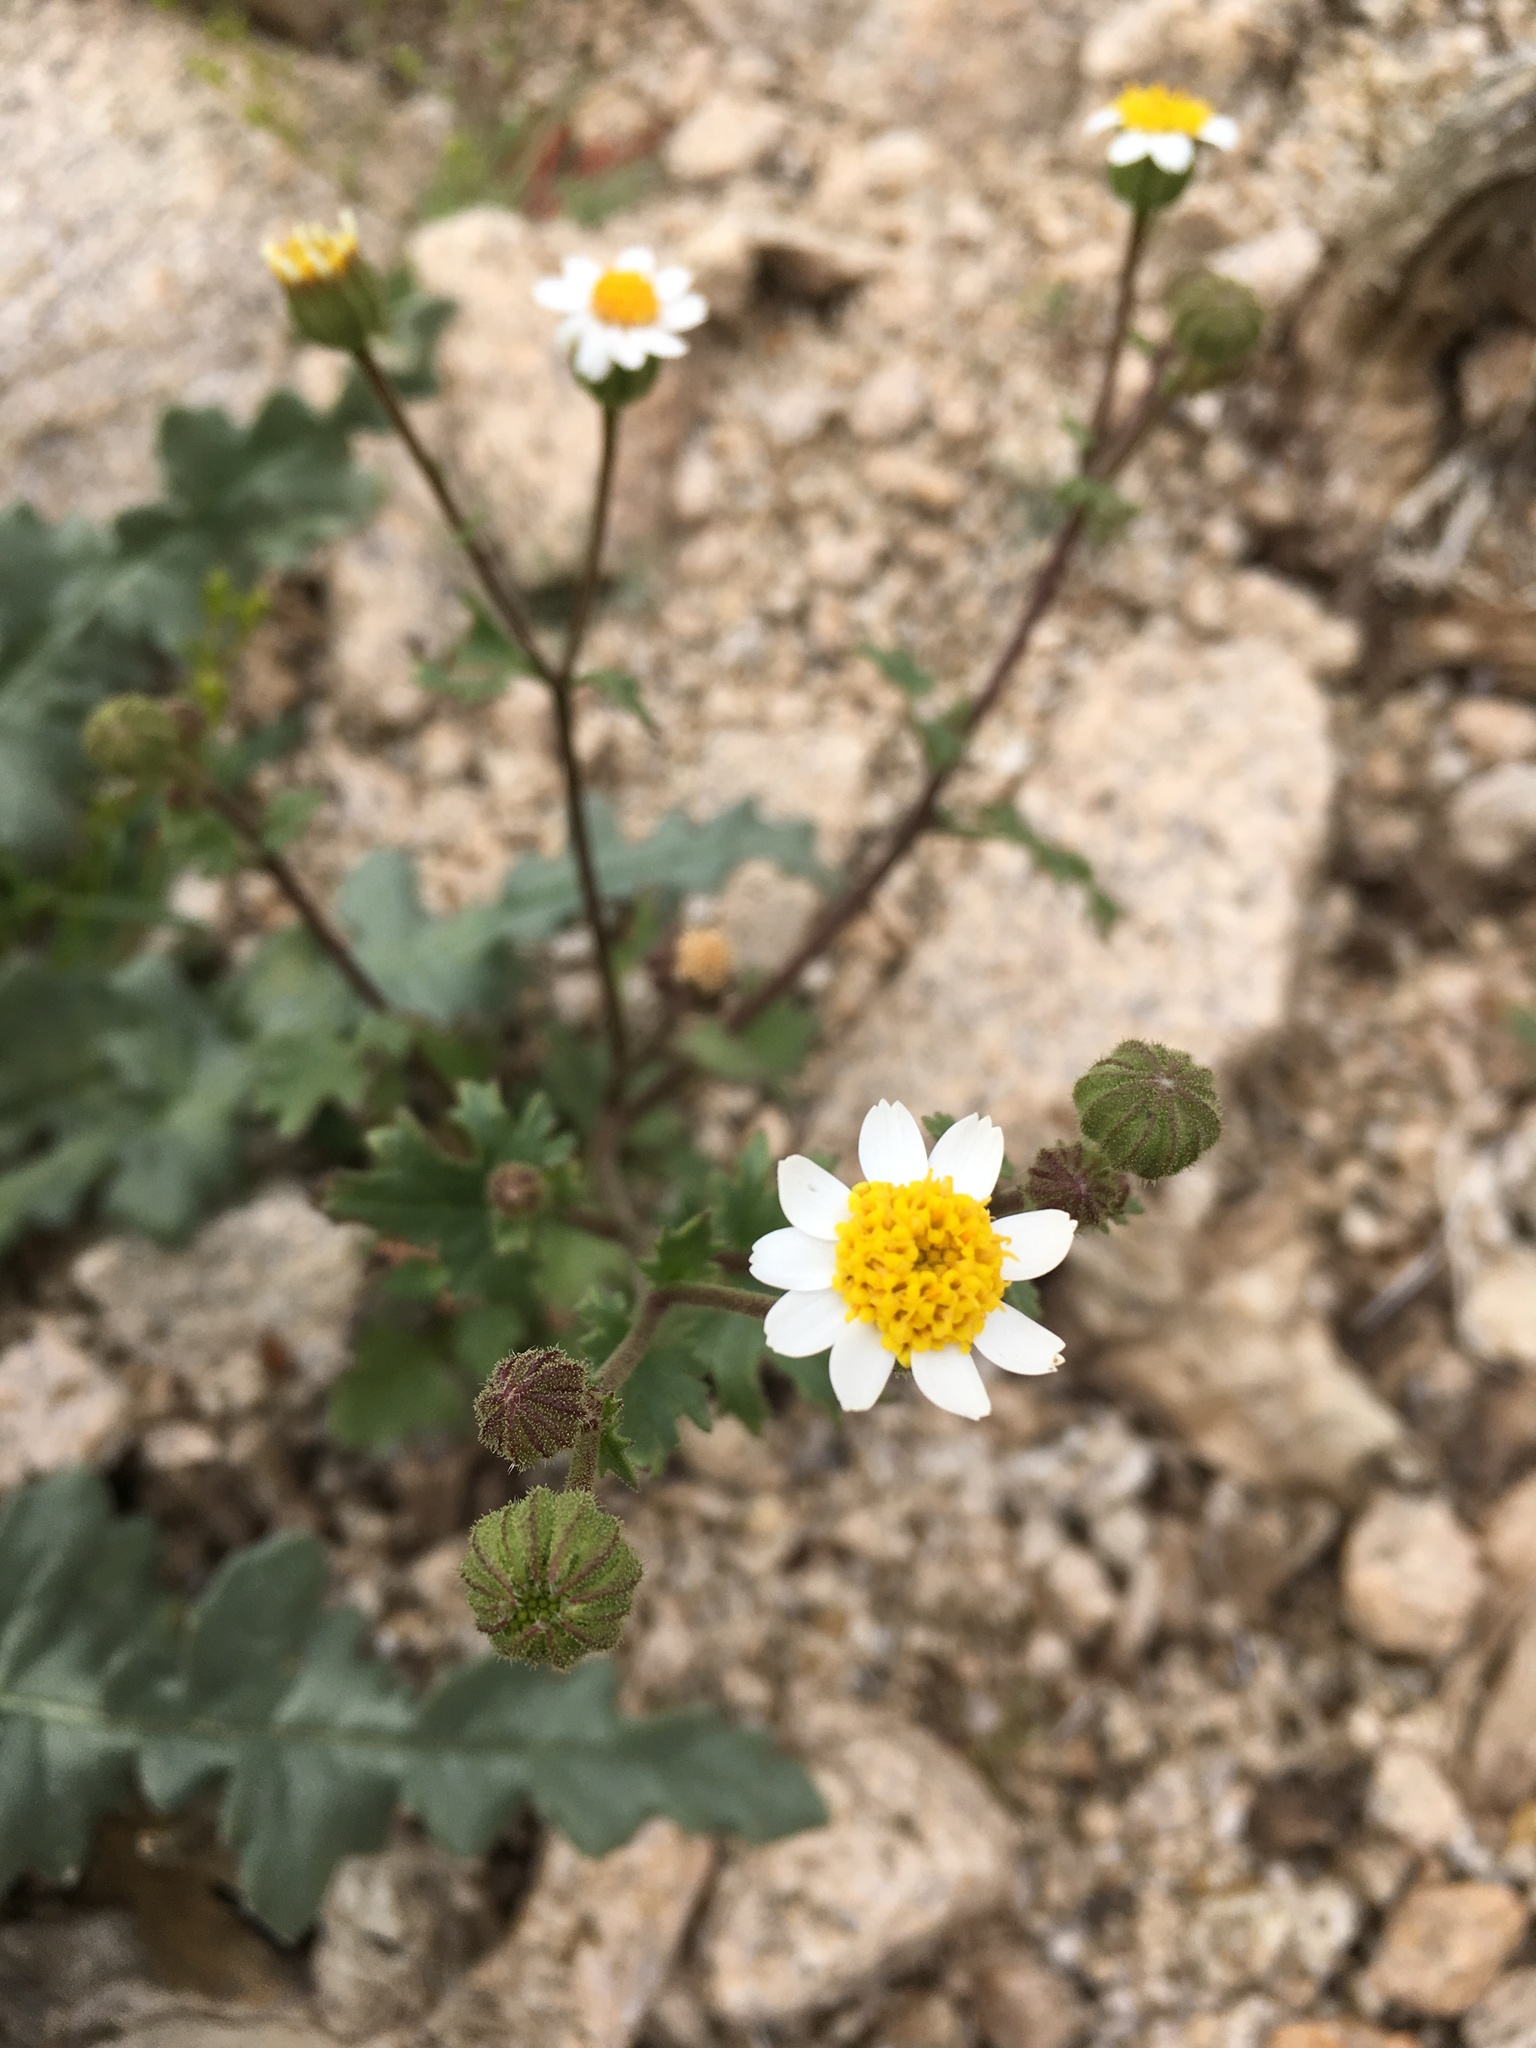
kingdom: Plantae
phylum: Tracheophyta
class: Magnoliopsida
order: Asterales
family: Asteraceae
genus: Laphamia
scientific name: Laphamia emoryi
